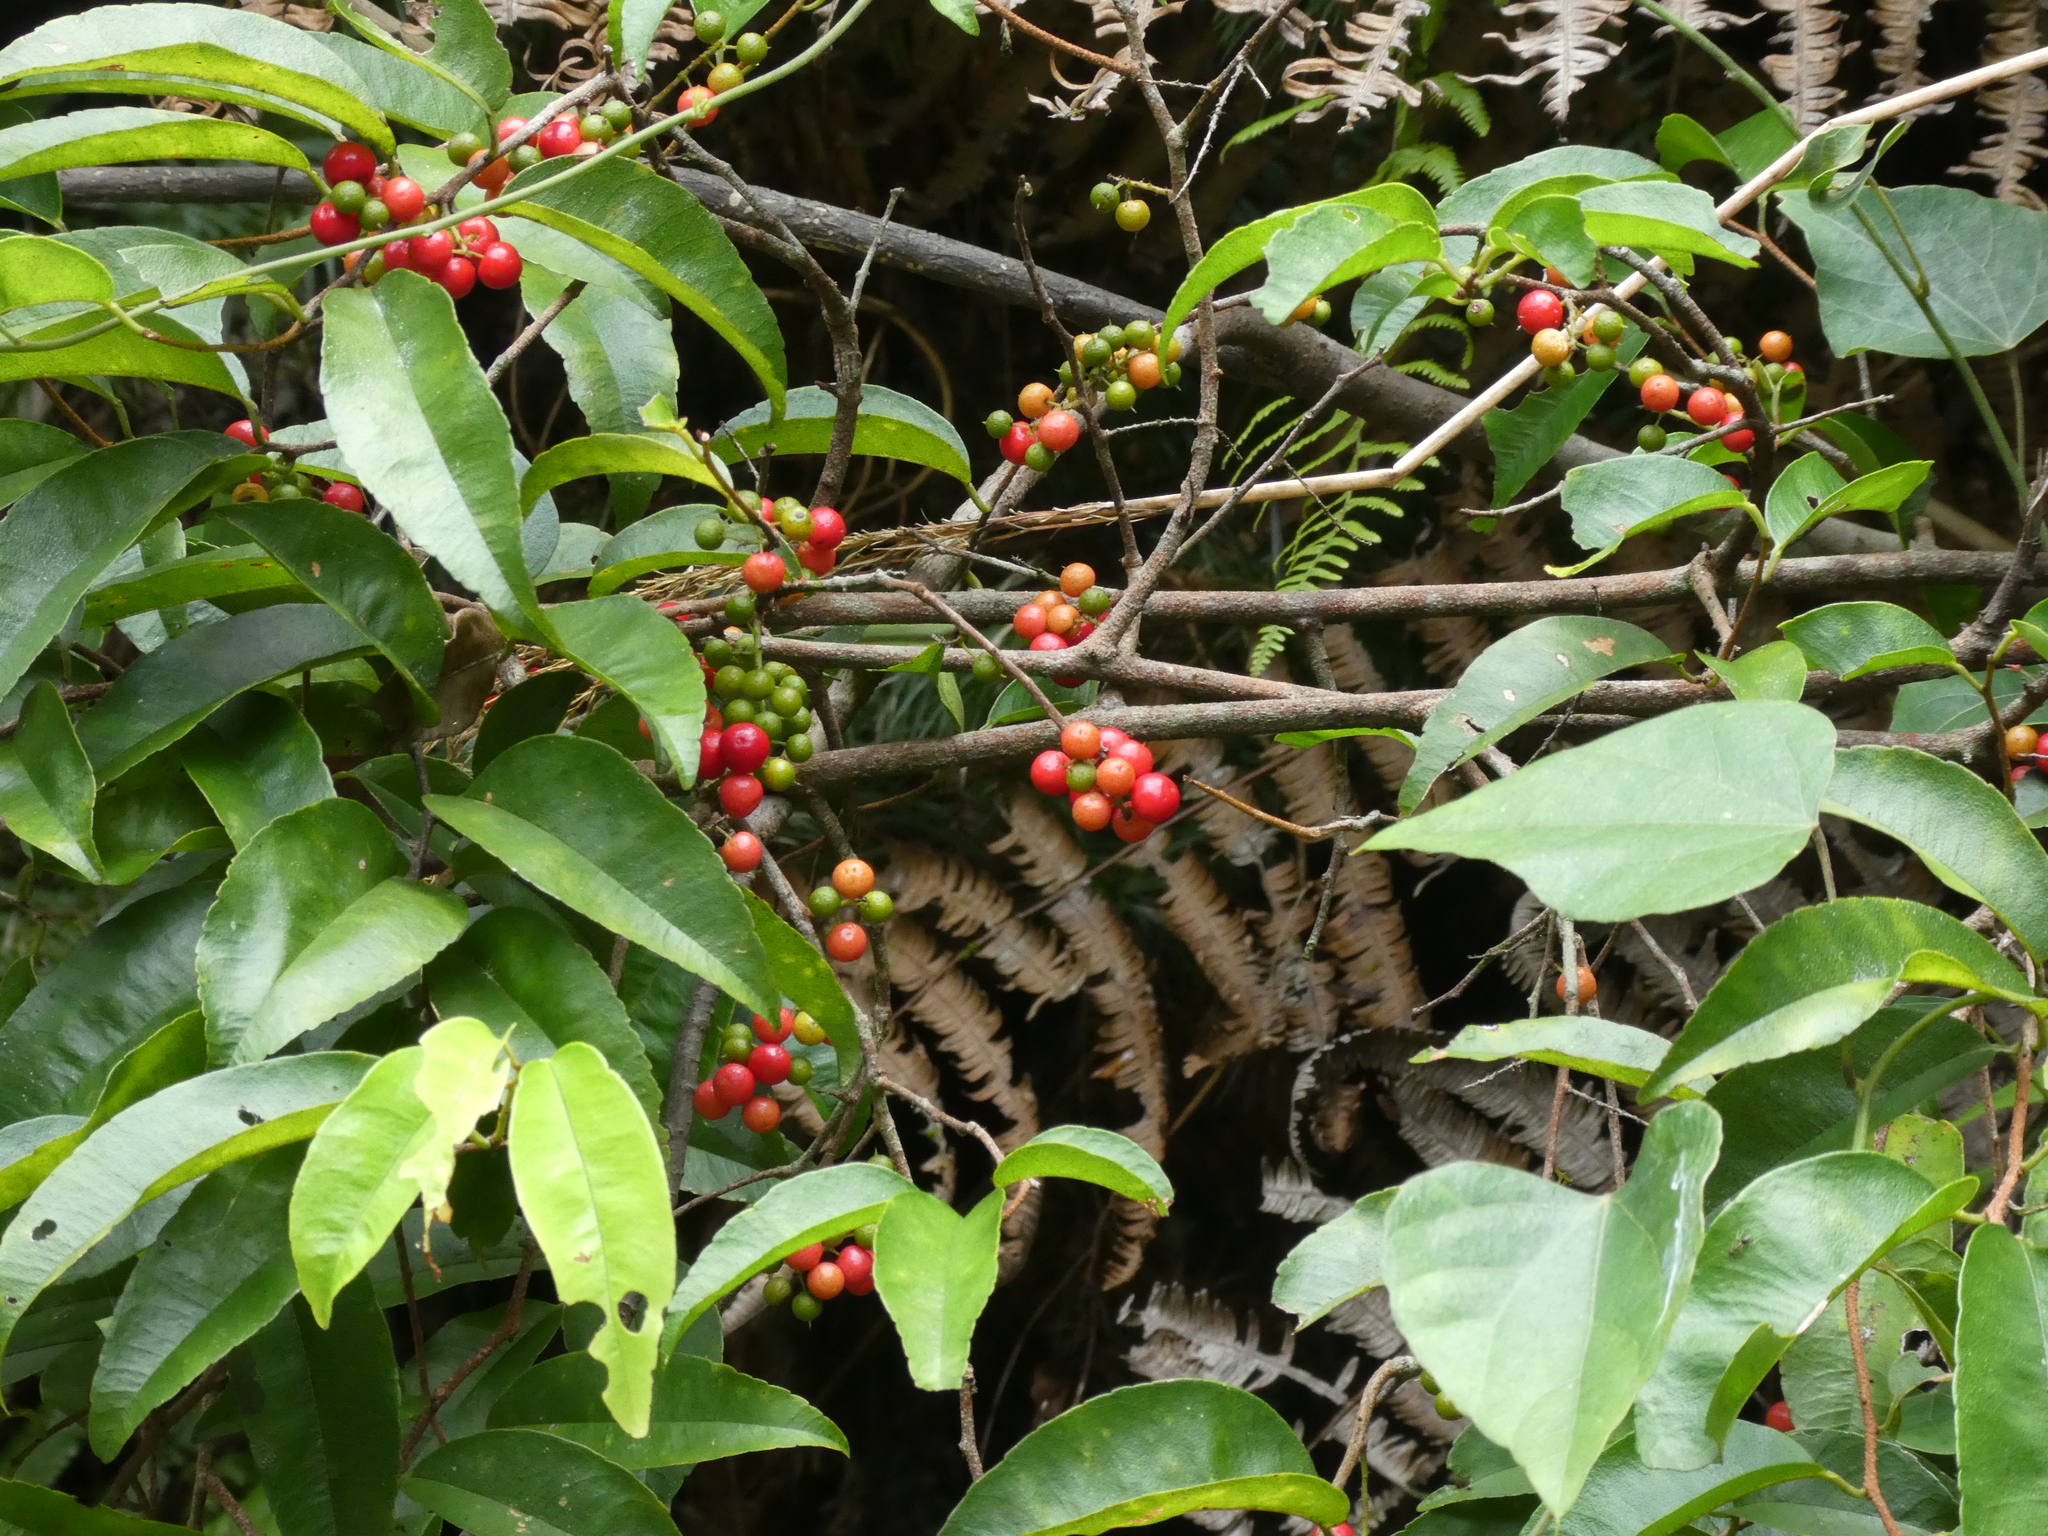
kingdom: Plantae
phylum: Tracheophyta
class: Magnoliopsida
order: Ericales
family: Primulaceae
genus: Embelia
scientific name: Embelia vestita
